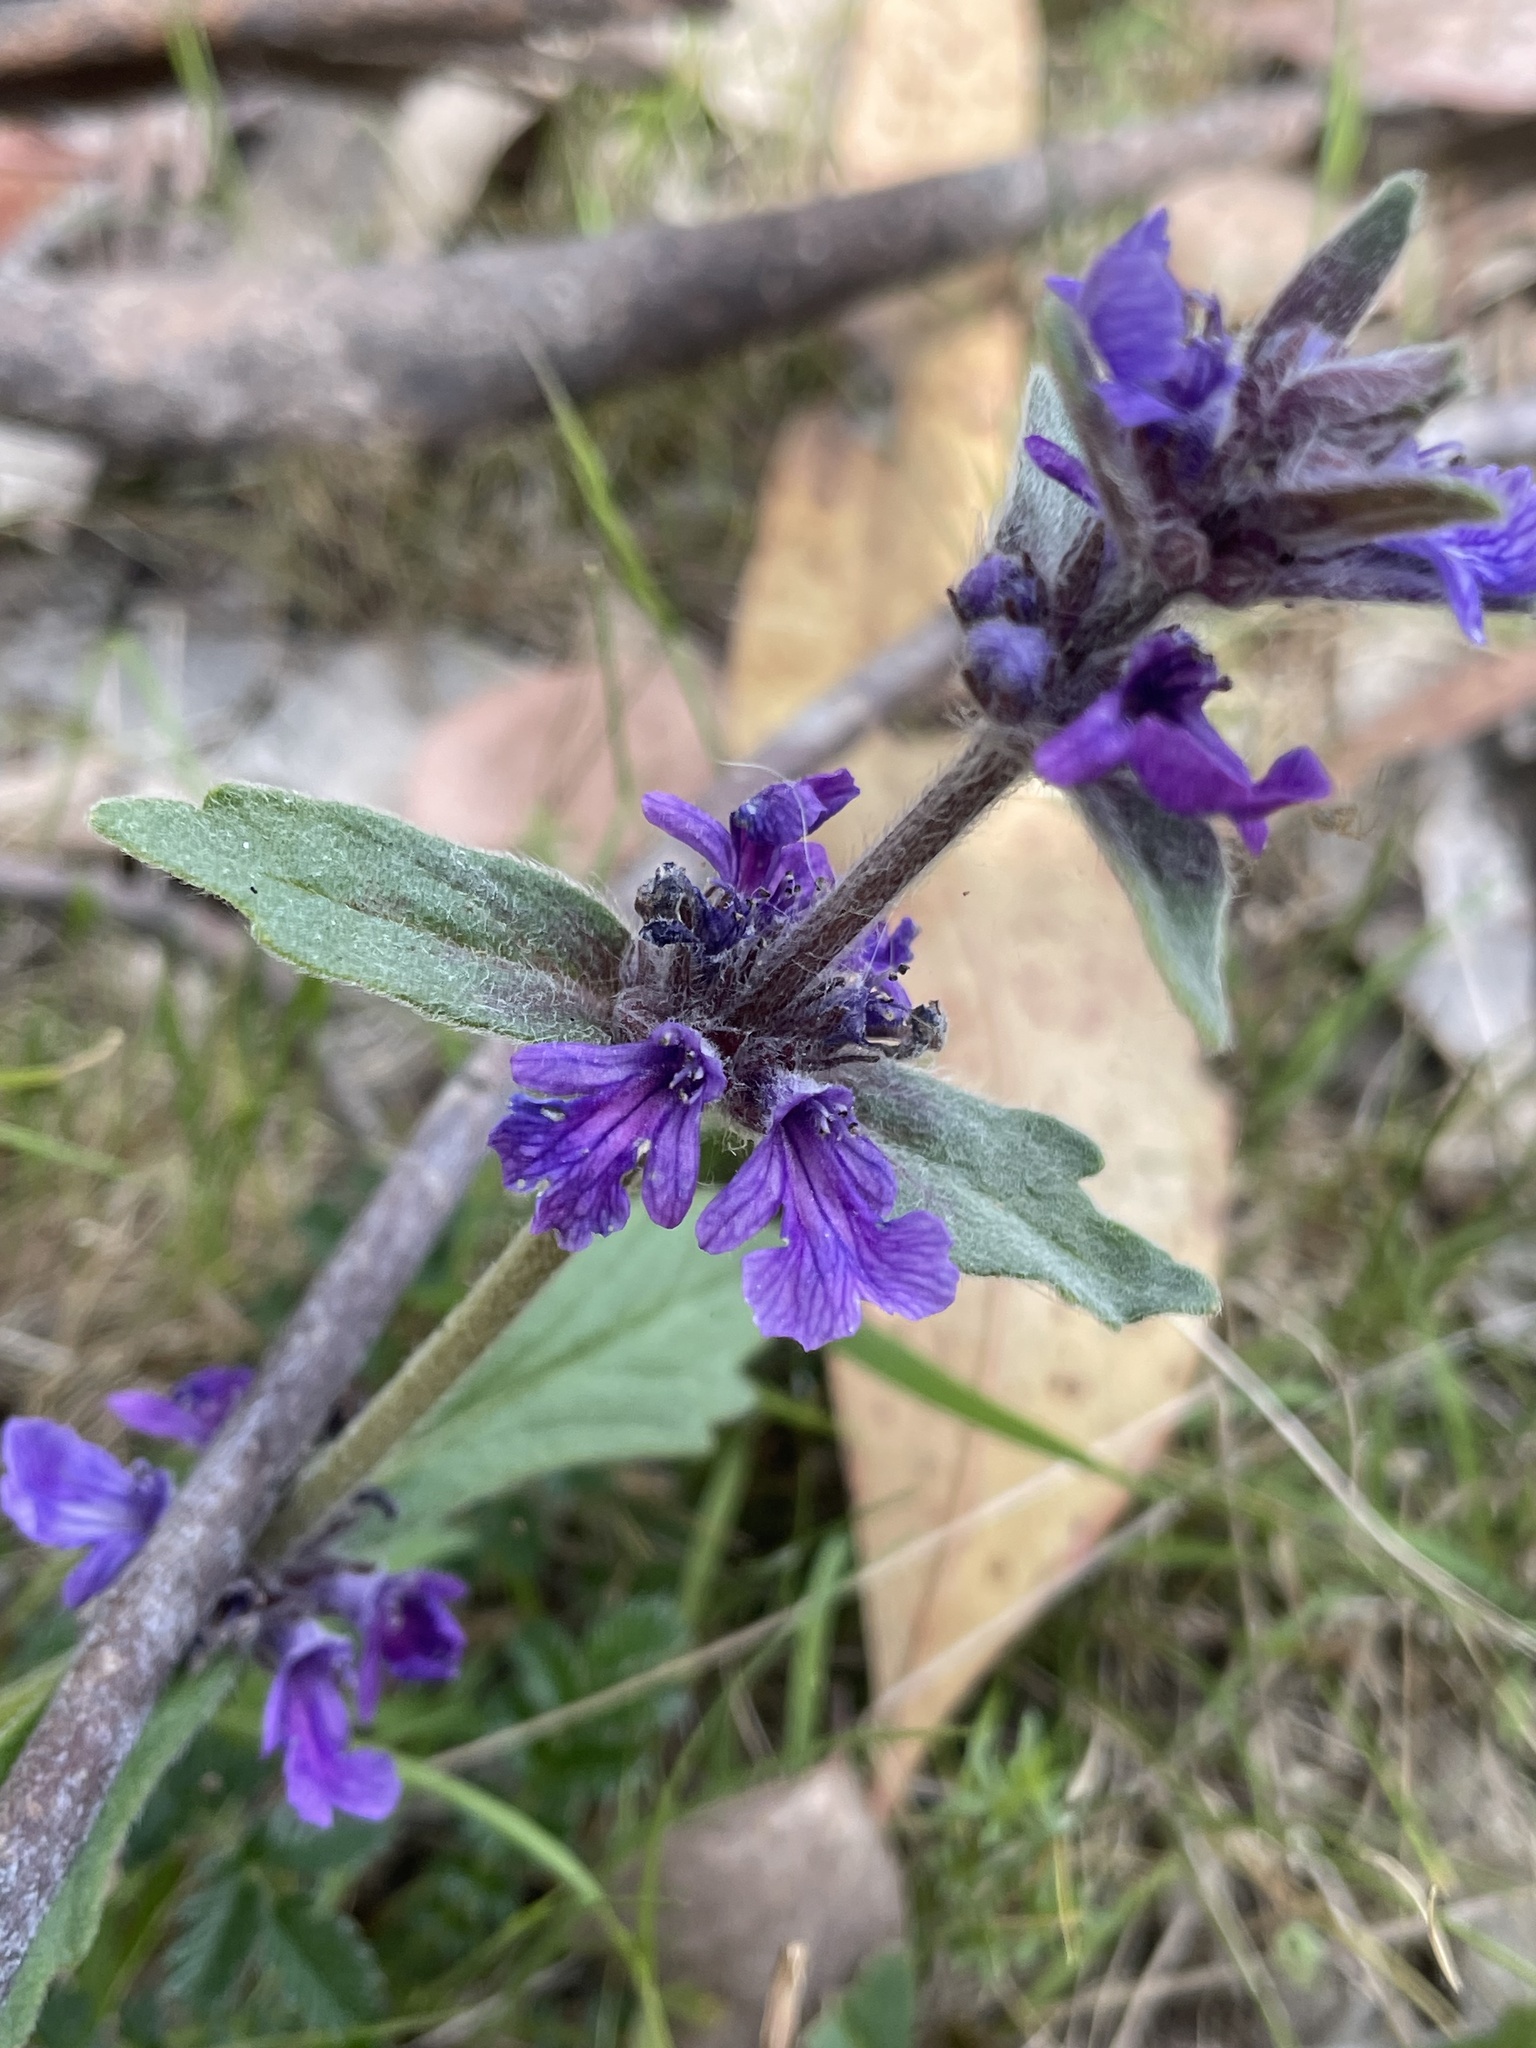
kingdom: Plantae
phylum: Tracheophyta
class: Magnoliopsida
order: Lamiales
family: Lamiaceae
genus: Ajuga
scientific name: Ajuga australis
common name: Australian bugle
